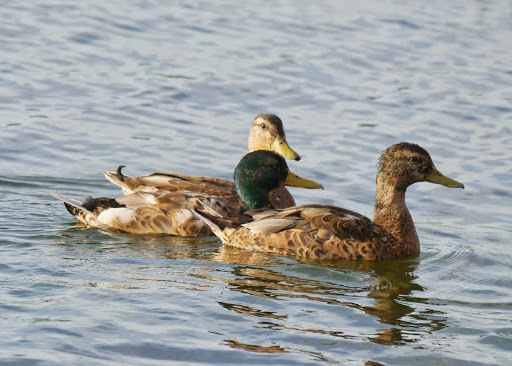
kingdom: Animalia
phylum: Chordata
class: Aves
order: Anseriformes
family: Anatidae
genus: Anas
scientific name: Anas platyrhynchos
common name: Mallard
